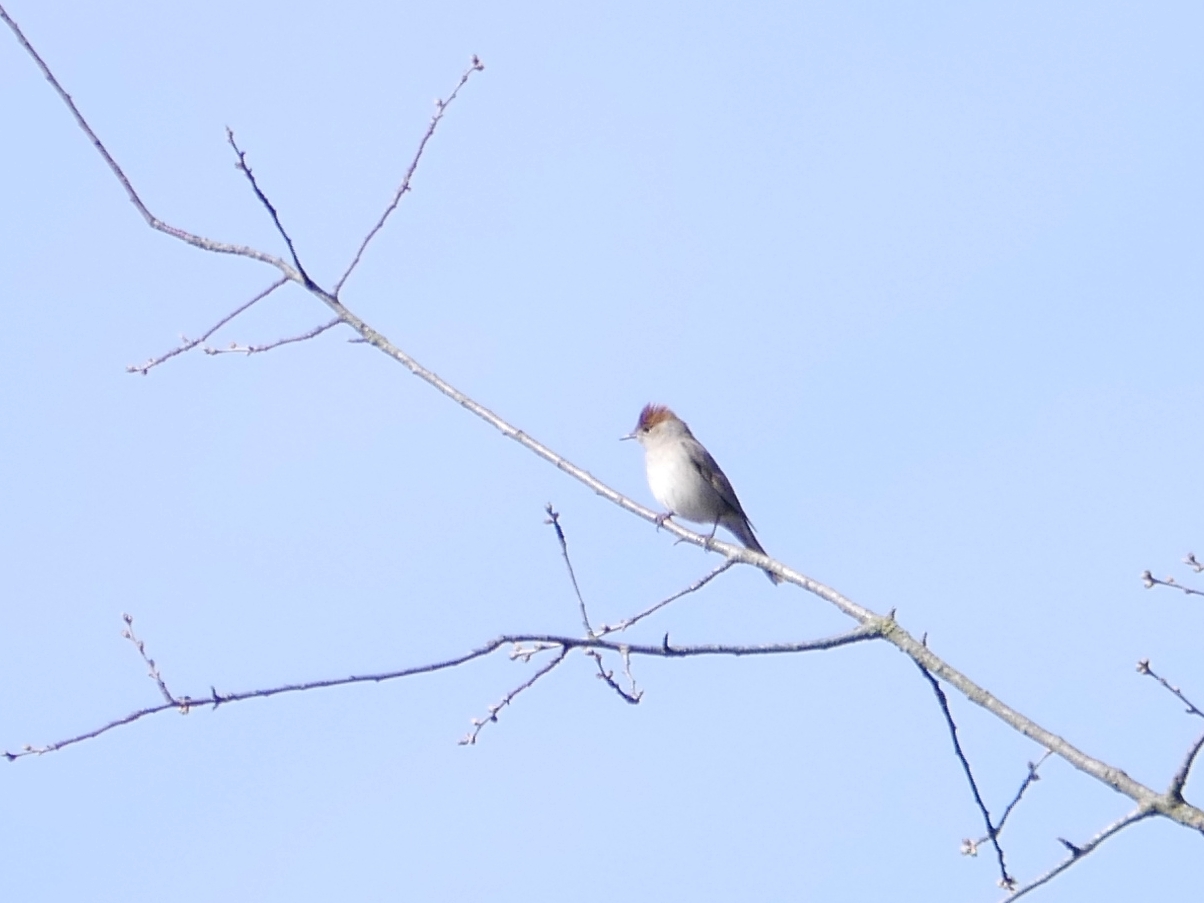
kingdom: Animalia
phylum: Chordata
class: Aves
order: Passeriformes
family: Sylviidae
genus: Sylvia
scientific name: Sylvia atricapilla
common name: Eurasian blackcap
